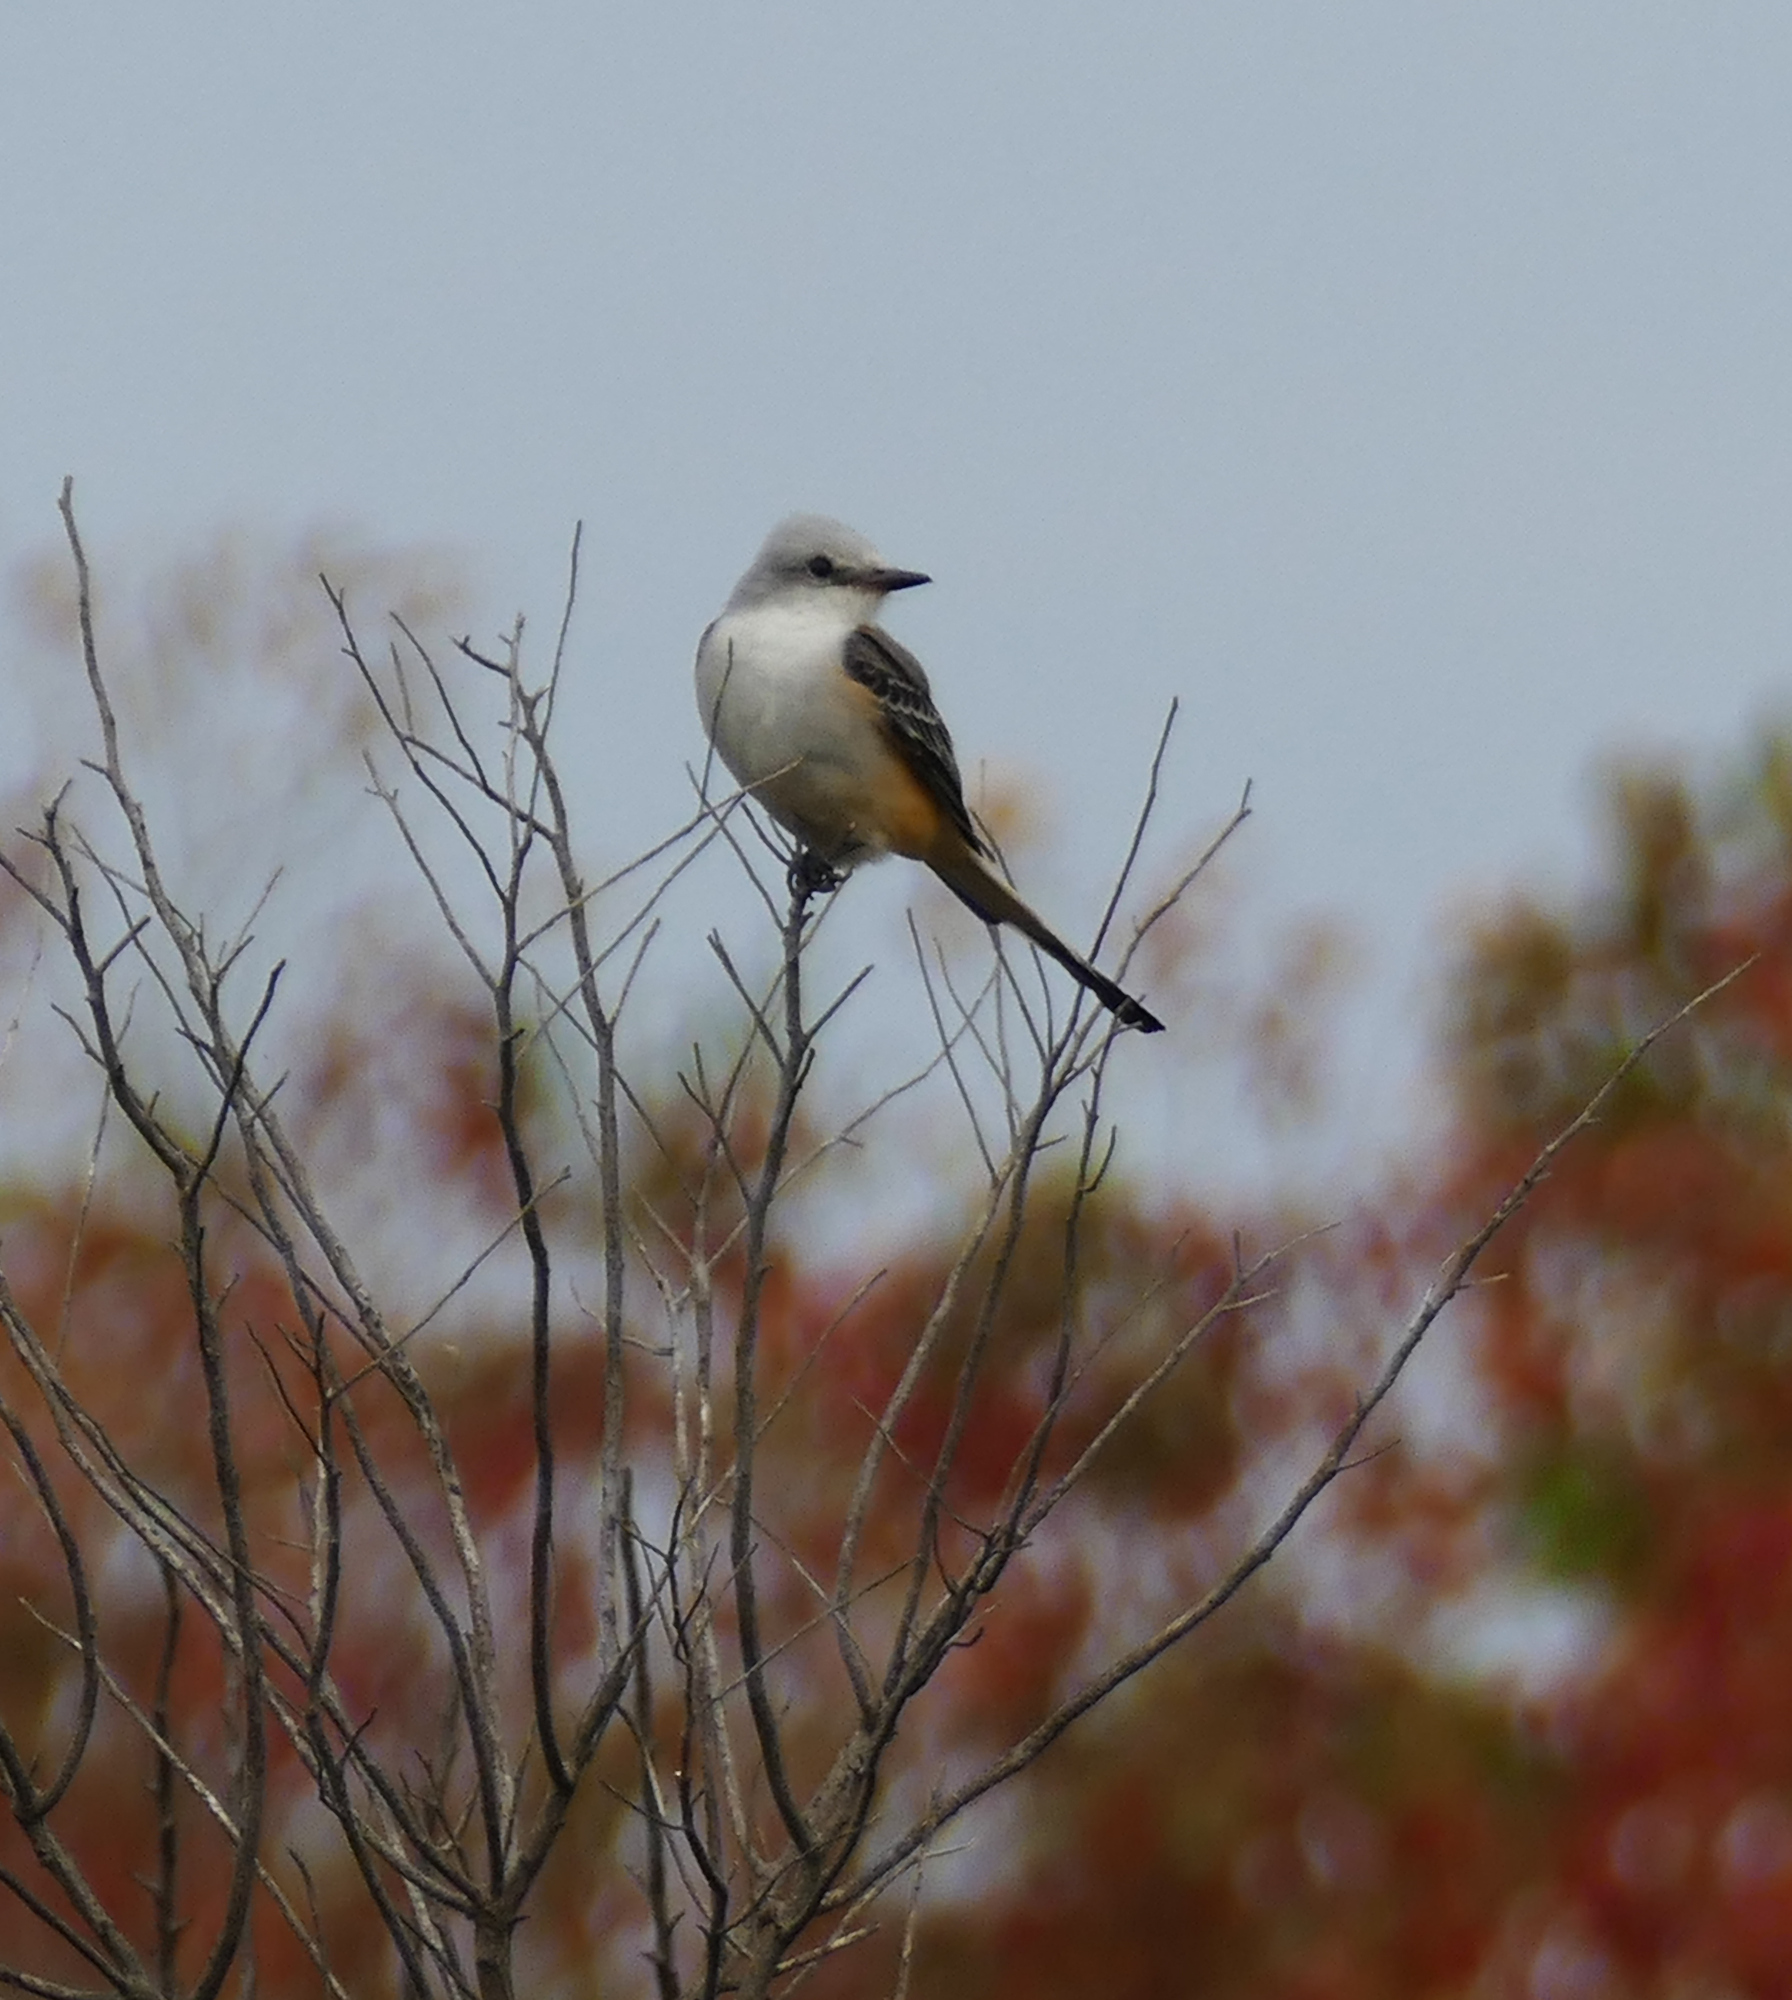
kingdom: Animalia
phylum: Chordata
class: Aves
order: Passeriformes
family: Tyrannidae
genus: Tyrannus
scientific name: Tyrannus forficatus
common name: Scissor-tailed flycatcher
